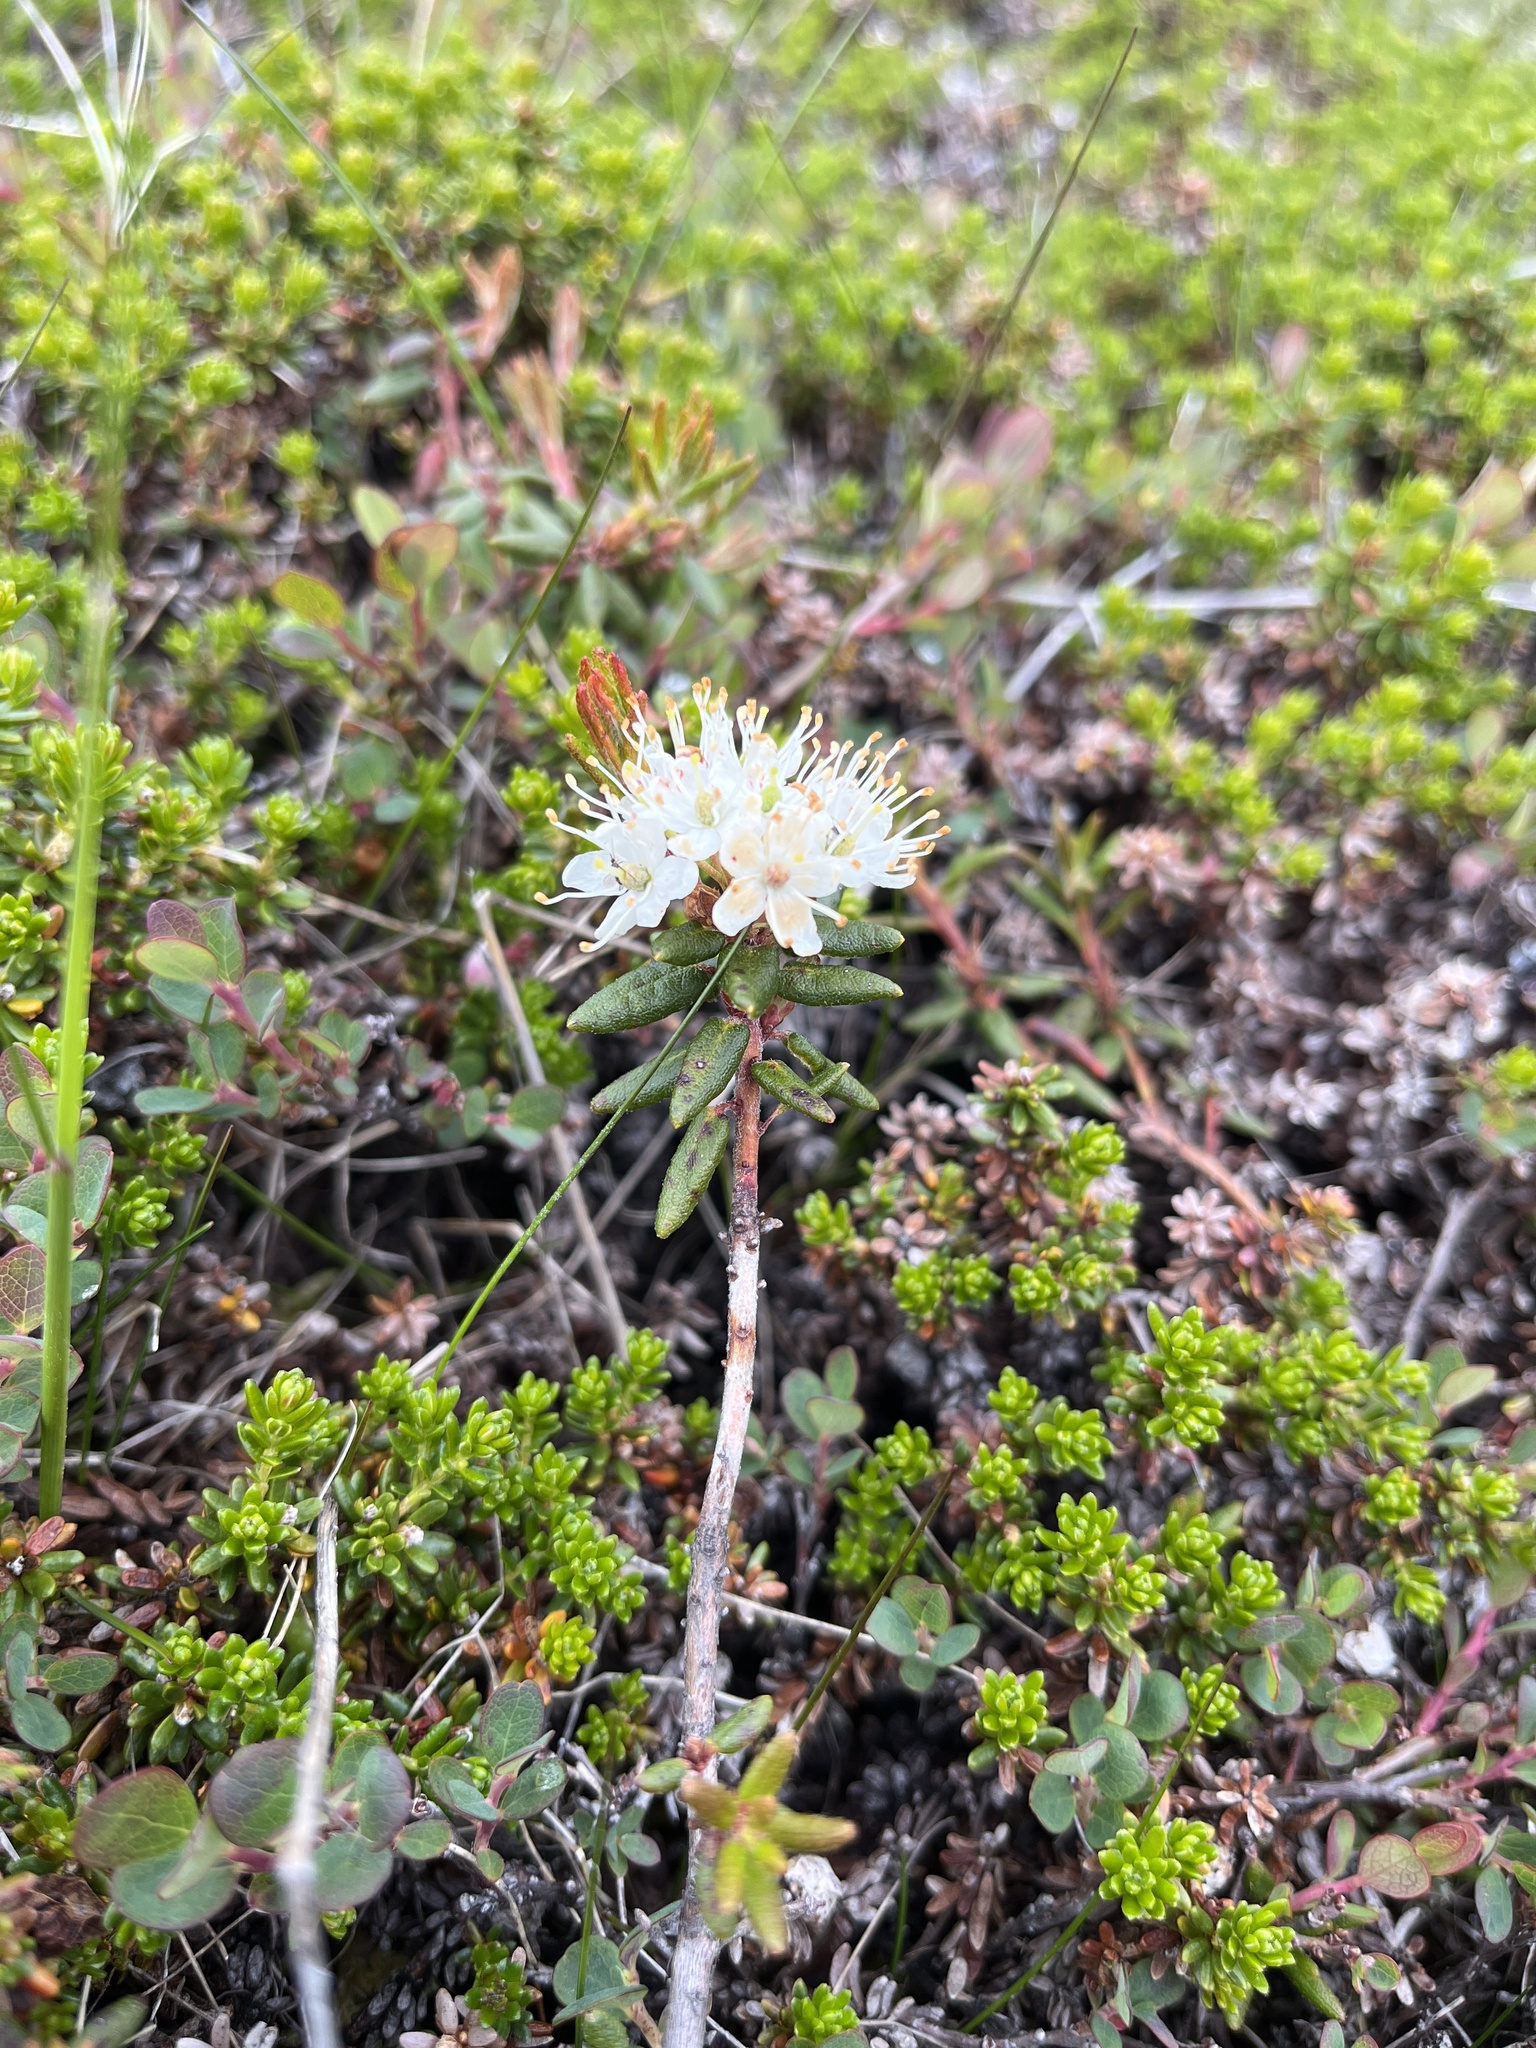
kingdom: Plantae
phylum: Tracheophyta
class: Magnoliopsida
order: Ericales
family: Ericaceae
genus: Rhododendron
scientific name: Rhododendron groenlandicum
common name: Bog labrador tea
